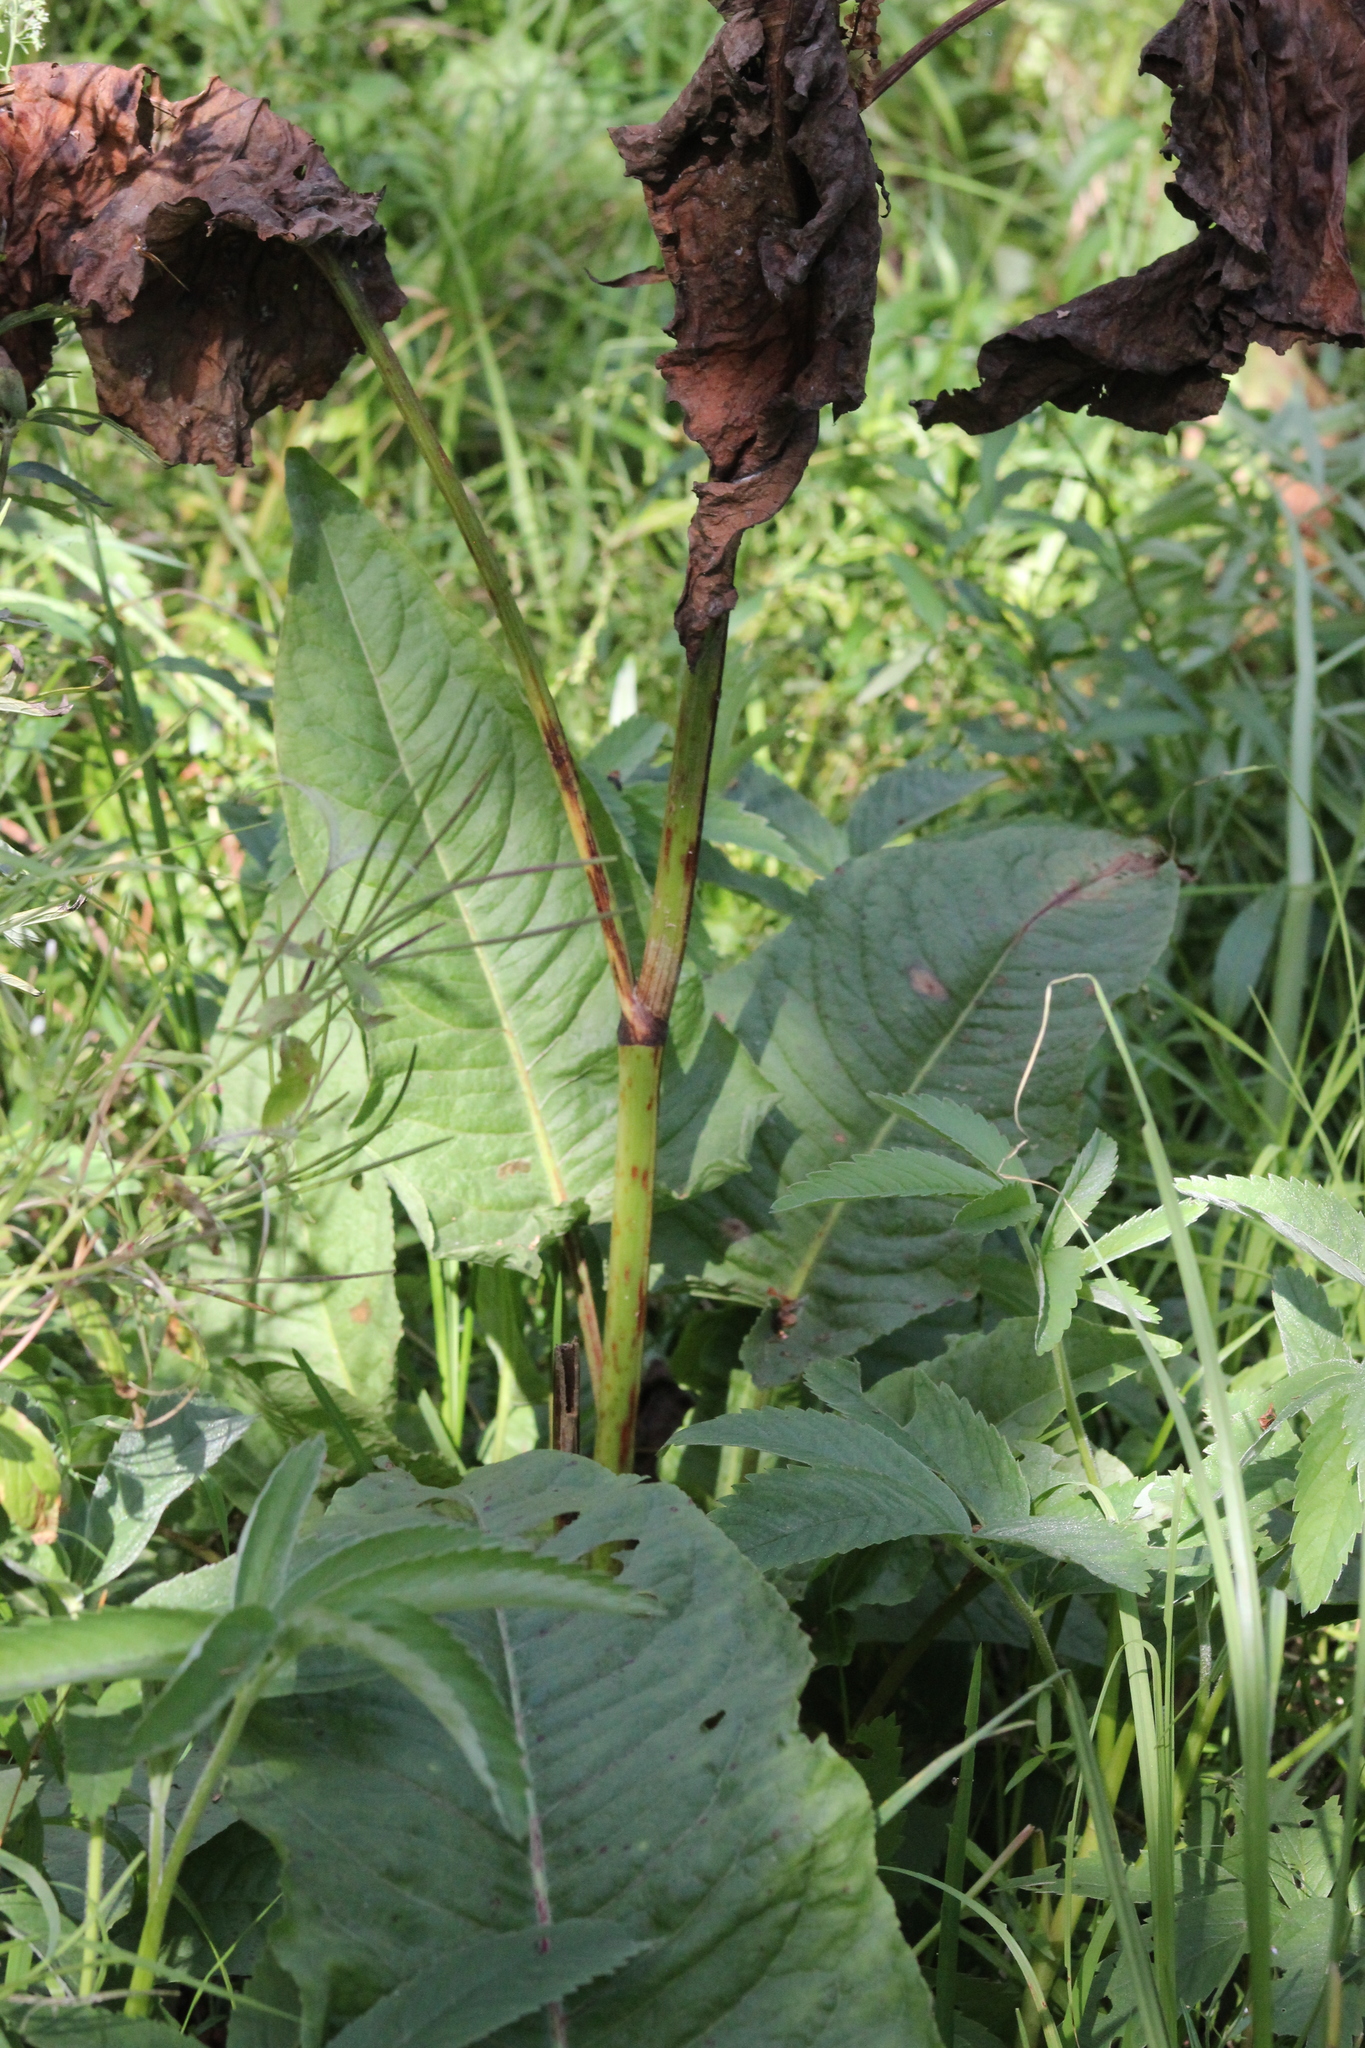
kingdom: Plantae
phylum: Tracheophyta
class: Magnoliopsida
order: Caryophyllales
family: Polygonaceae
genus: Rumex
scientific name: Rumex aquaticus
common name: Scottish dock
